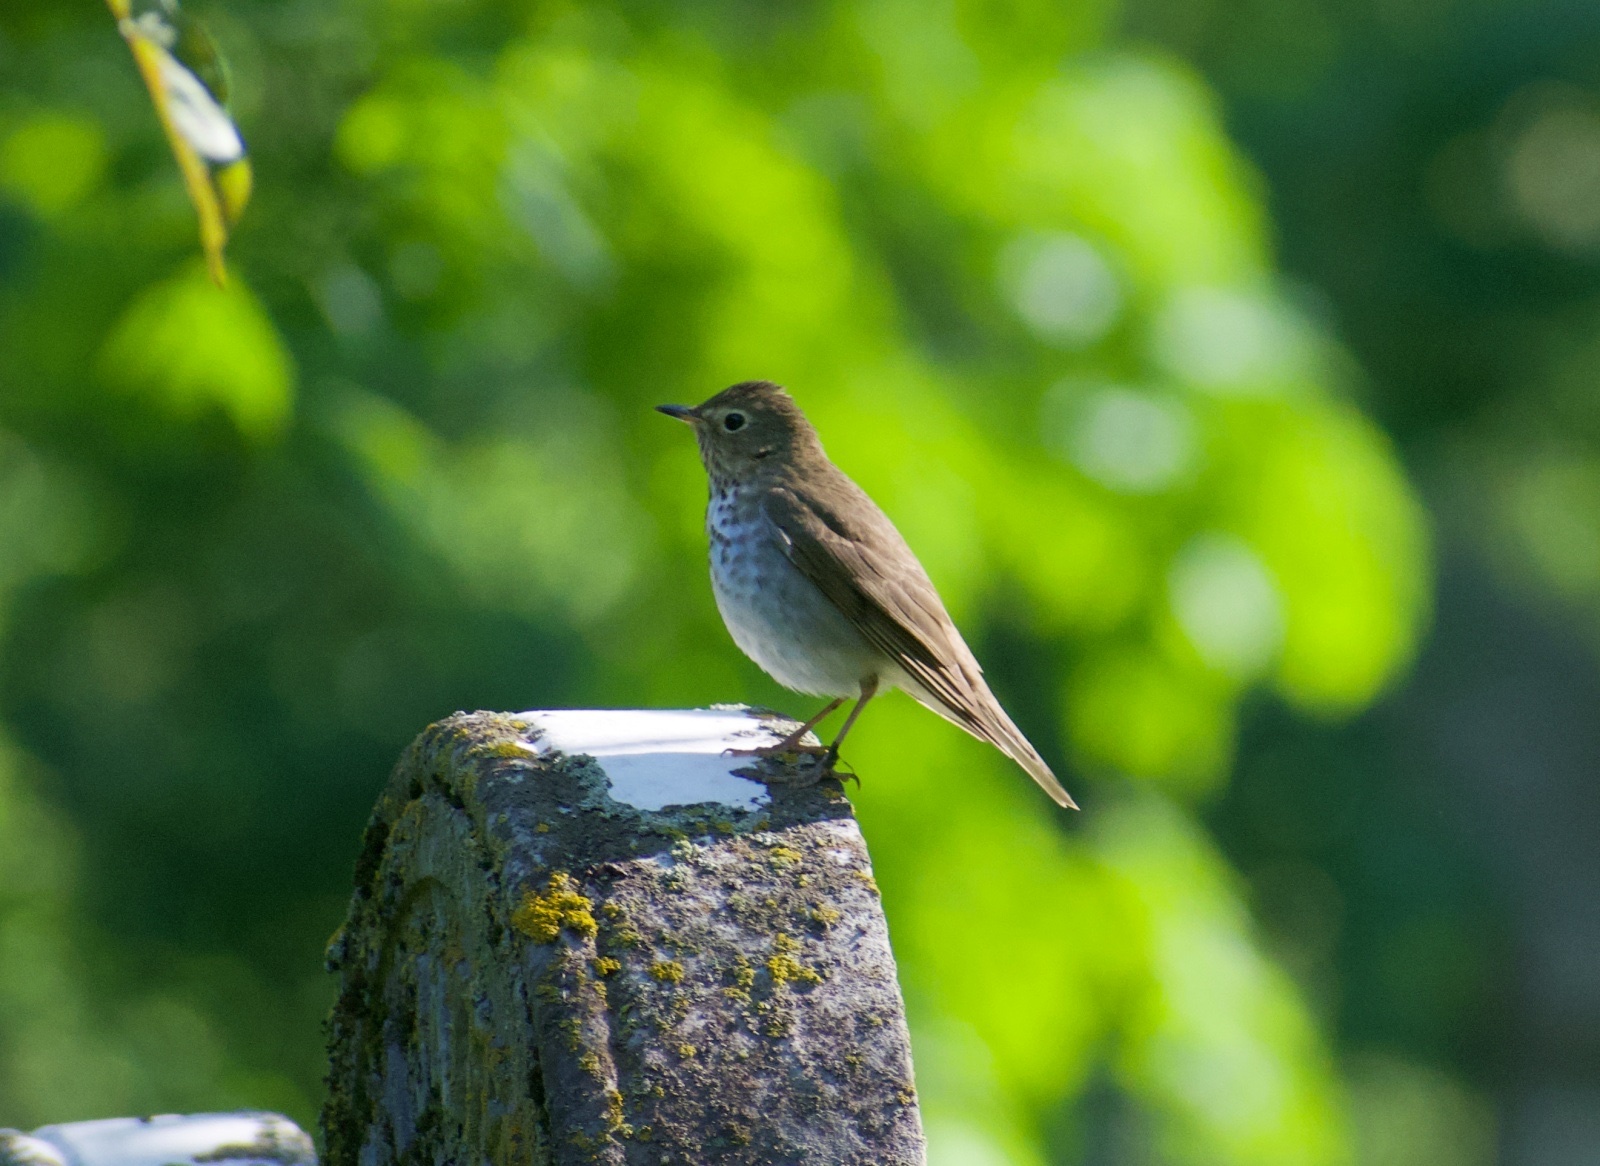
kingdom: Animalia
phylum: Chordata
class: Aves
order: Passeriformes
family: Turdidae
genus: Catharus
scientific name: Catharus ustulatus
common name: Swainson's thrush
